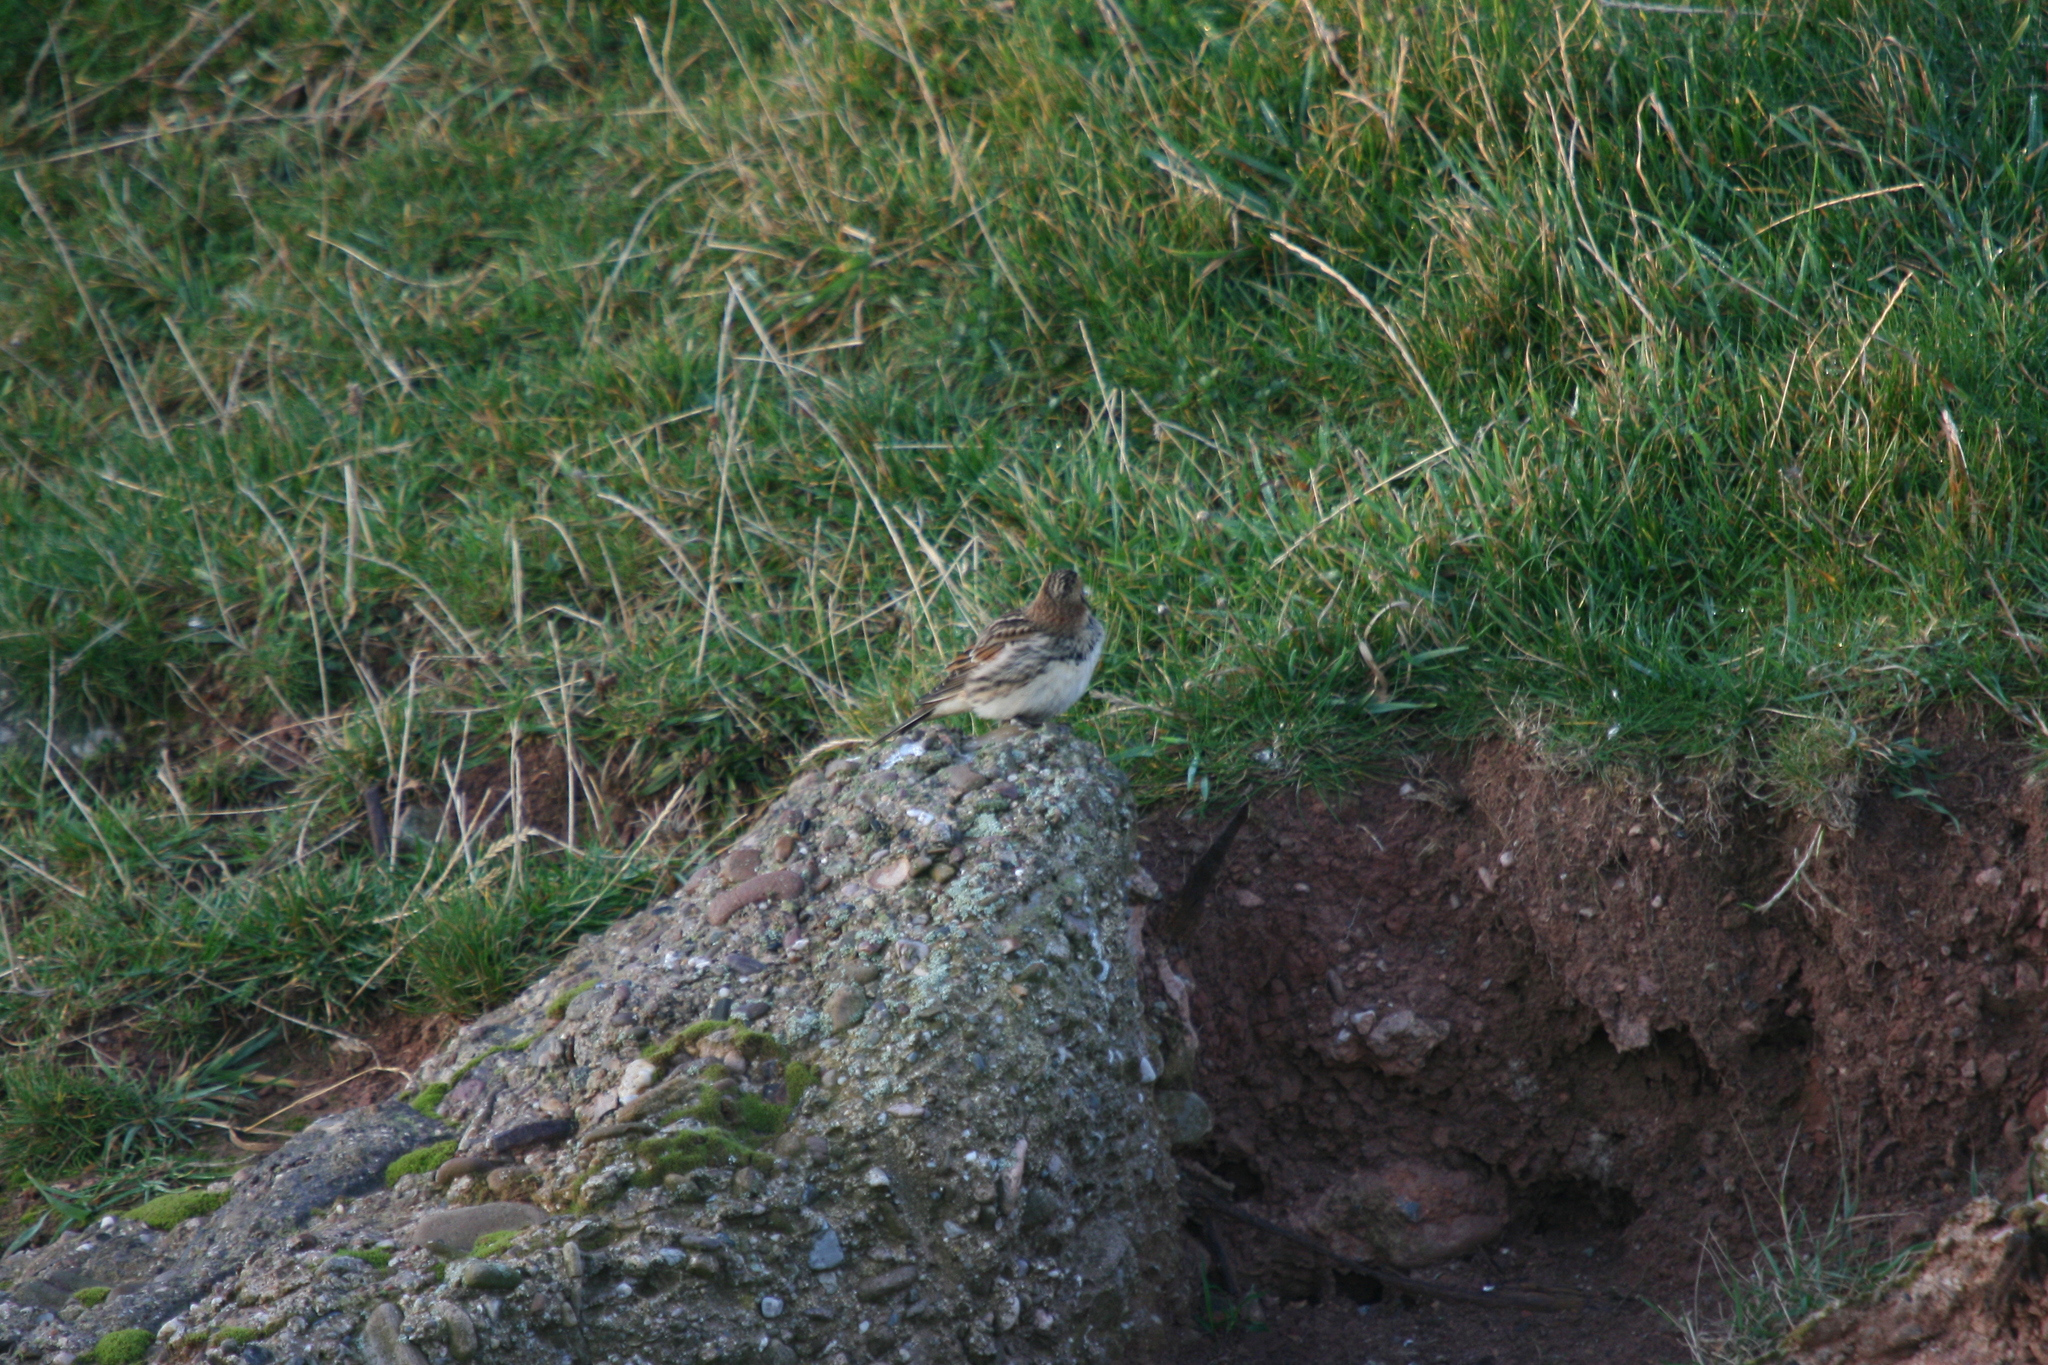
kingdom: Animalia
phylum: Chordata
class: Aves
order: Passeriformes
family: Calcariidae
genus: Calcarius
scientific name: Calcarius lapponicus
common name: Lapland longspur
